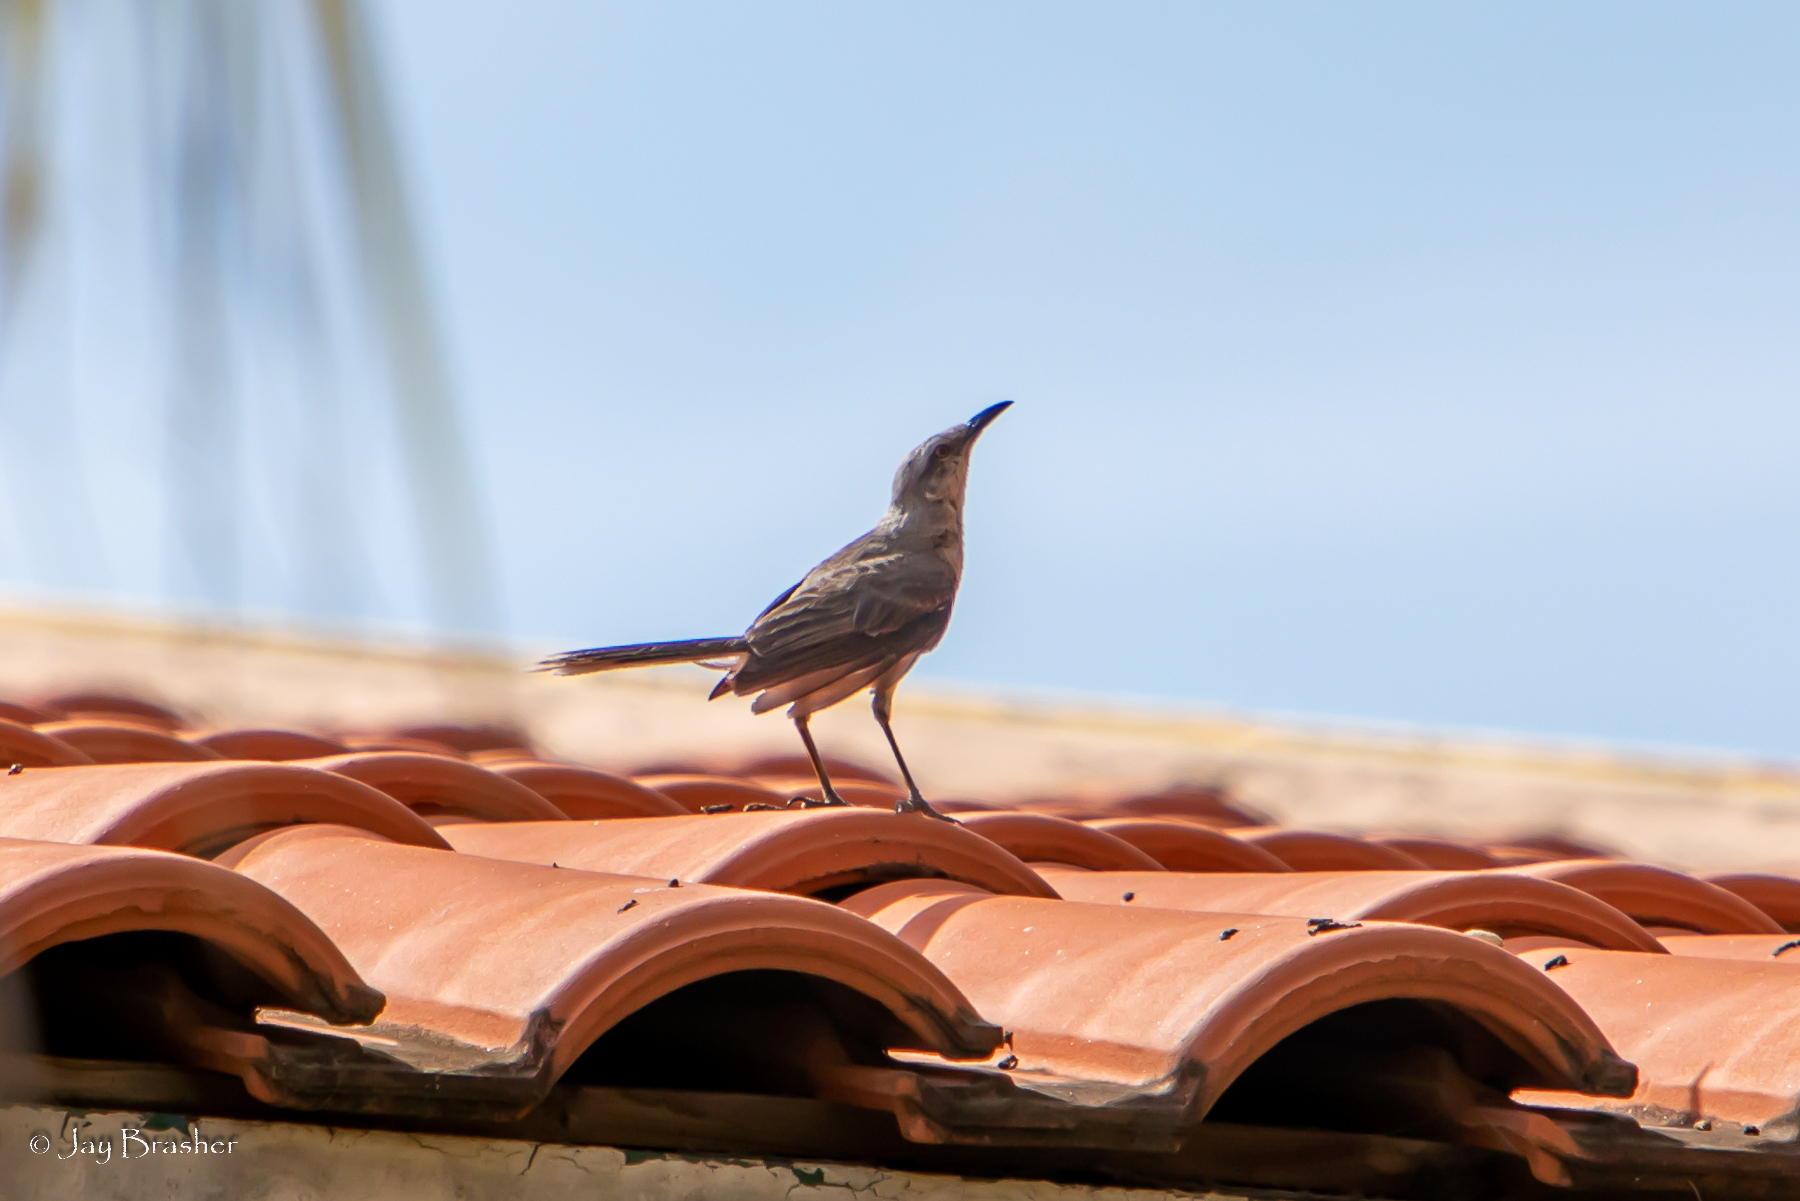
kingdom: Animalia
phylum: Chordata
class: Aves
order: Passeriformes
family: Mimidae
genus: Mimus
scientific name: Mimus gilvus
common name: Tropical mockingbird
